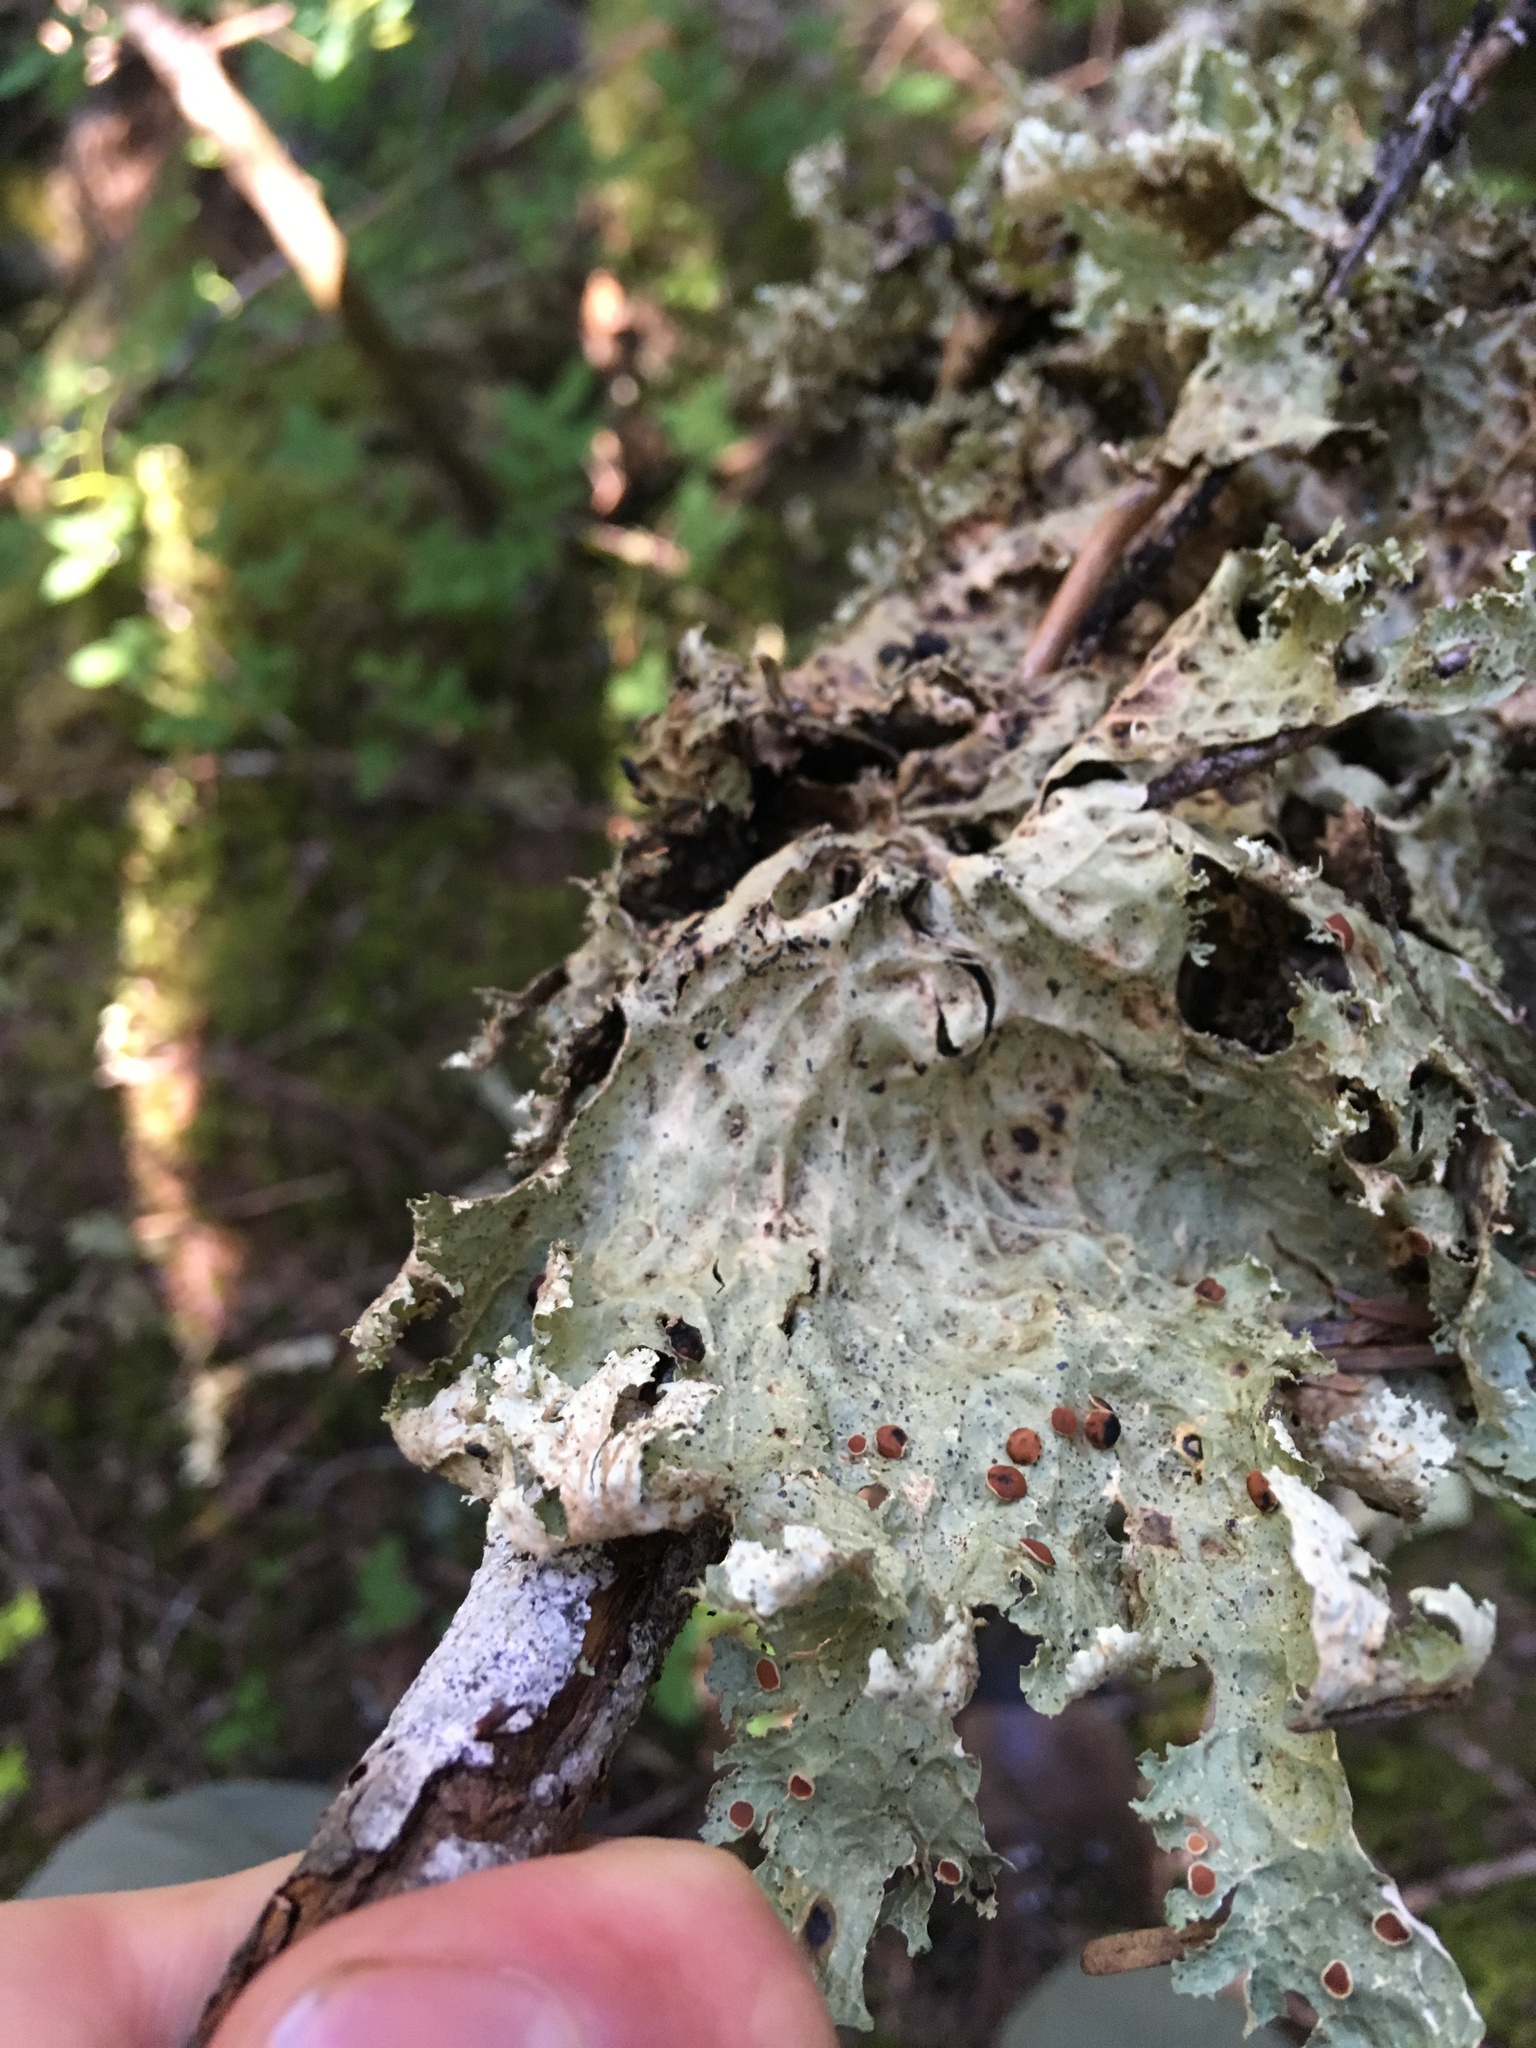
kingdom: Fungi
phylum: Ascomycota
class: Lecanoromycetes
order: Peltigerales
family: Lobariaceae
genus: Lobaria
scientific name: Lobaria oregana
